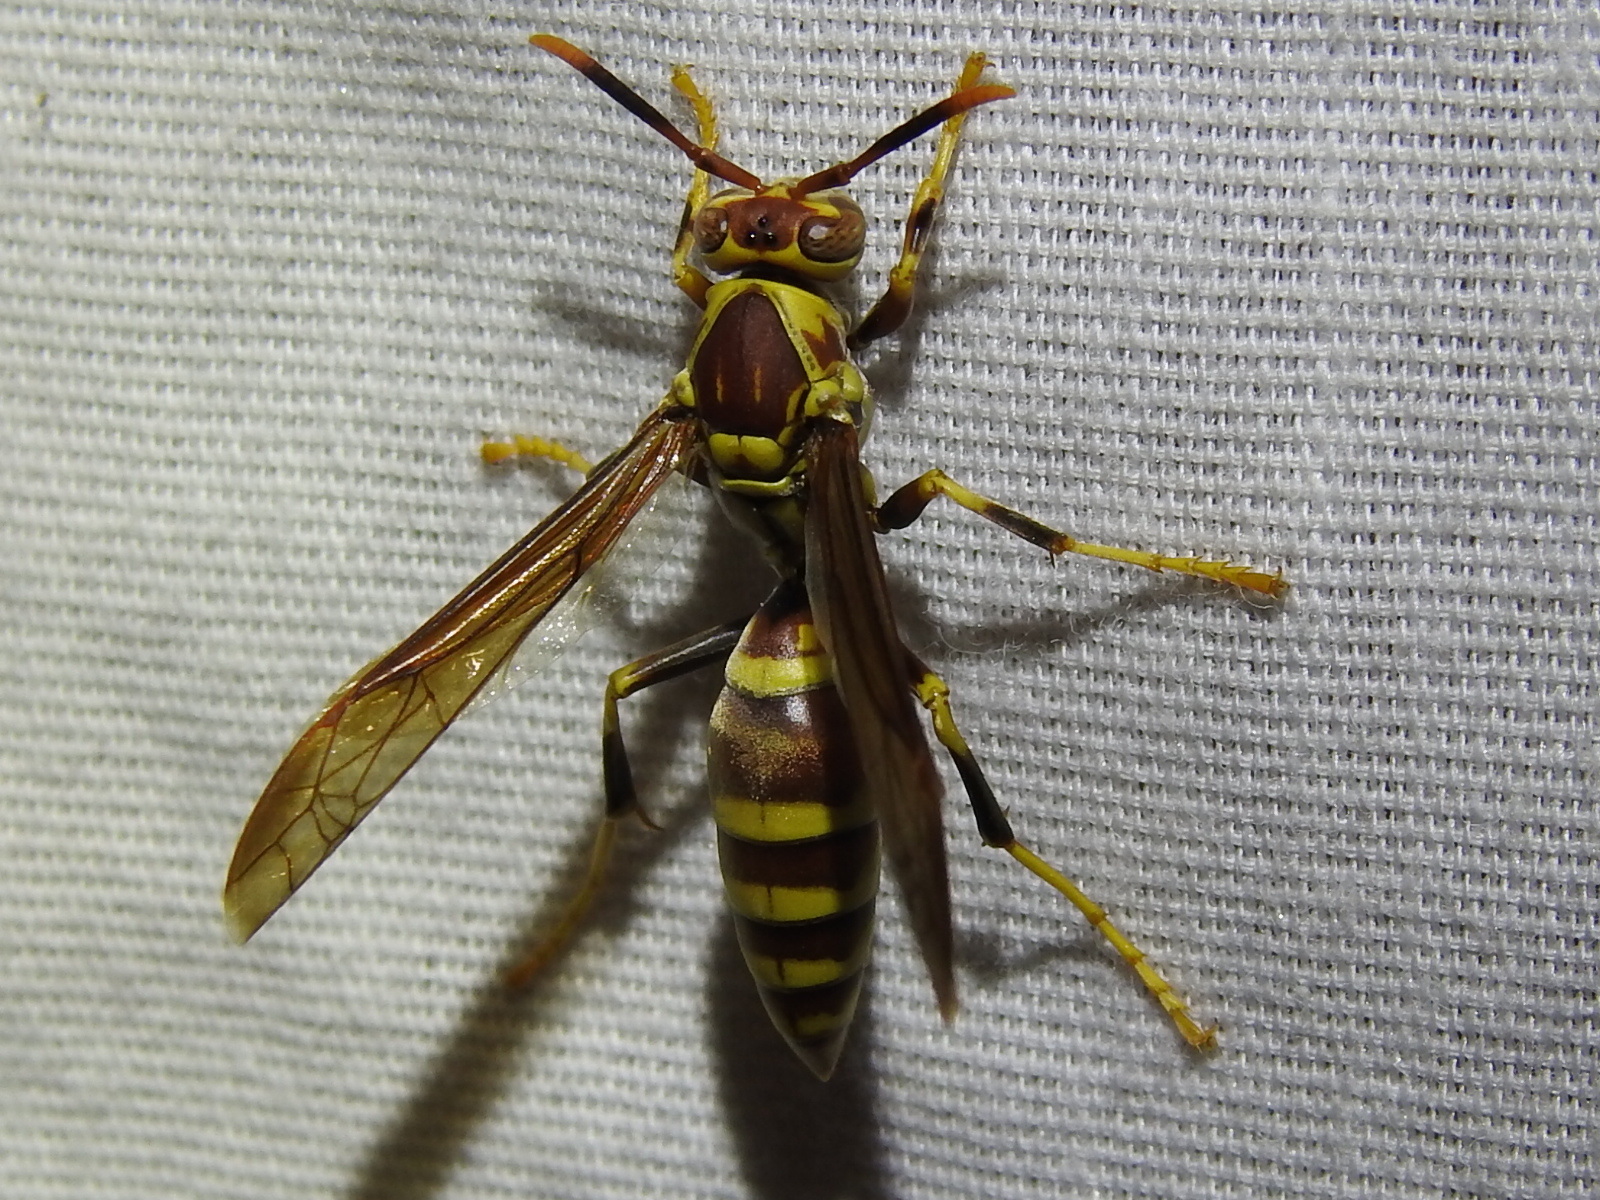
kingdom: Animalia
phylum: Arthropoda
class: Insecta
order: Hymenoptera
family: Eumenidae
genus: Polistes
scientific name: Polistes exclamans
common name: Paper wasp
